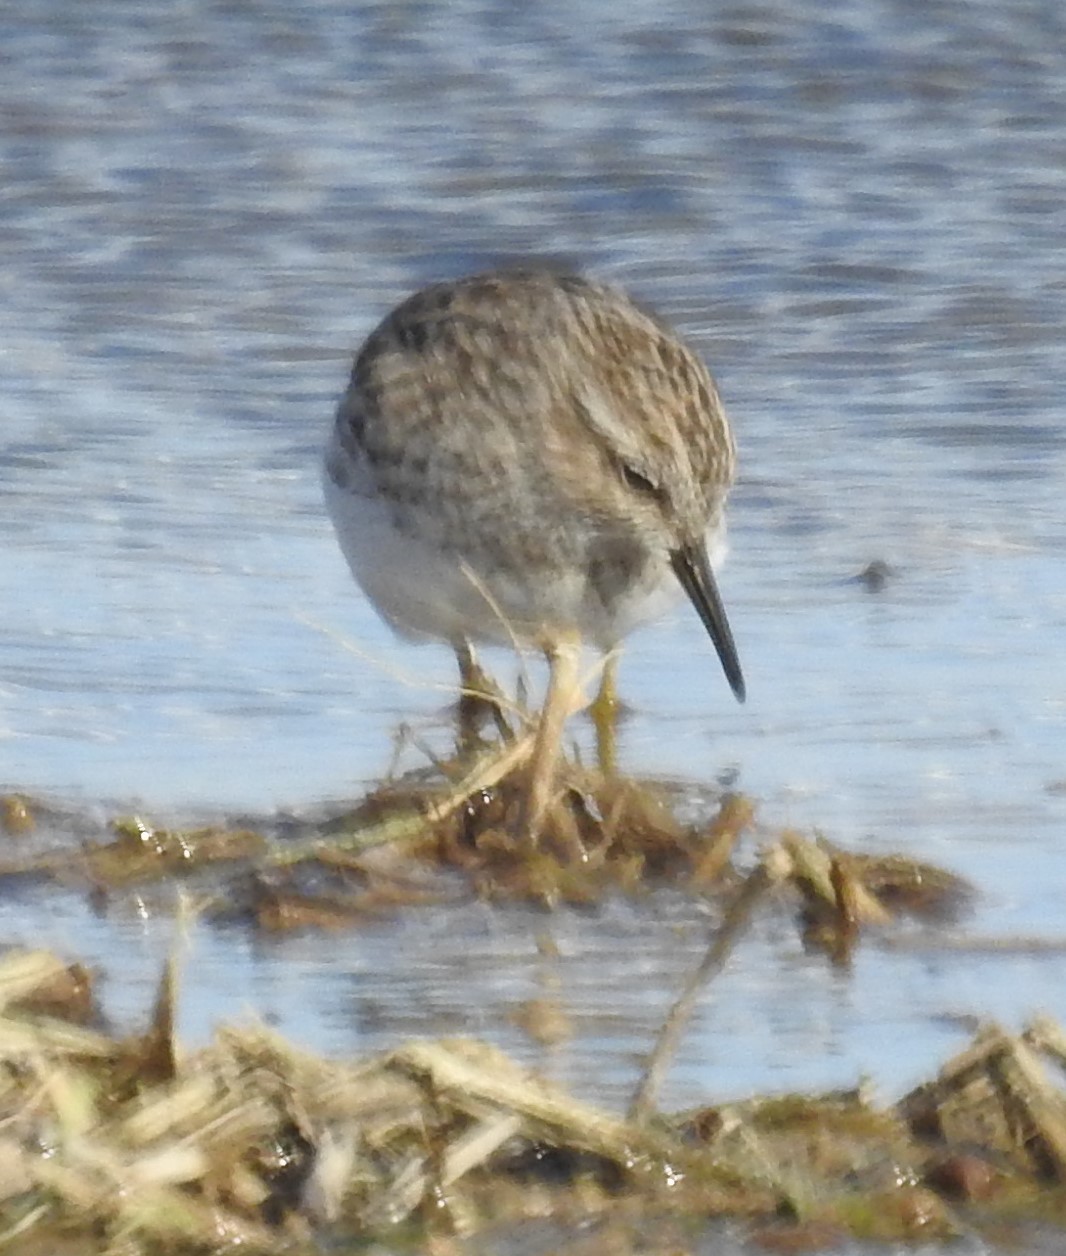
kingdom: Animalia
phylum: Chordata
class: Aves
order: Charadriiformes
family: Scolopacidae
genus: Calidris
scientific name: Calidris minutilla
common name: Least sandpiper
